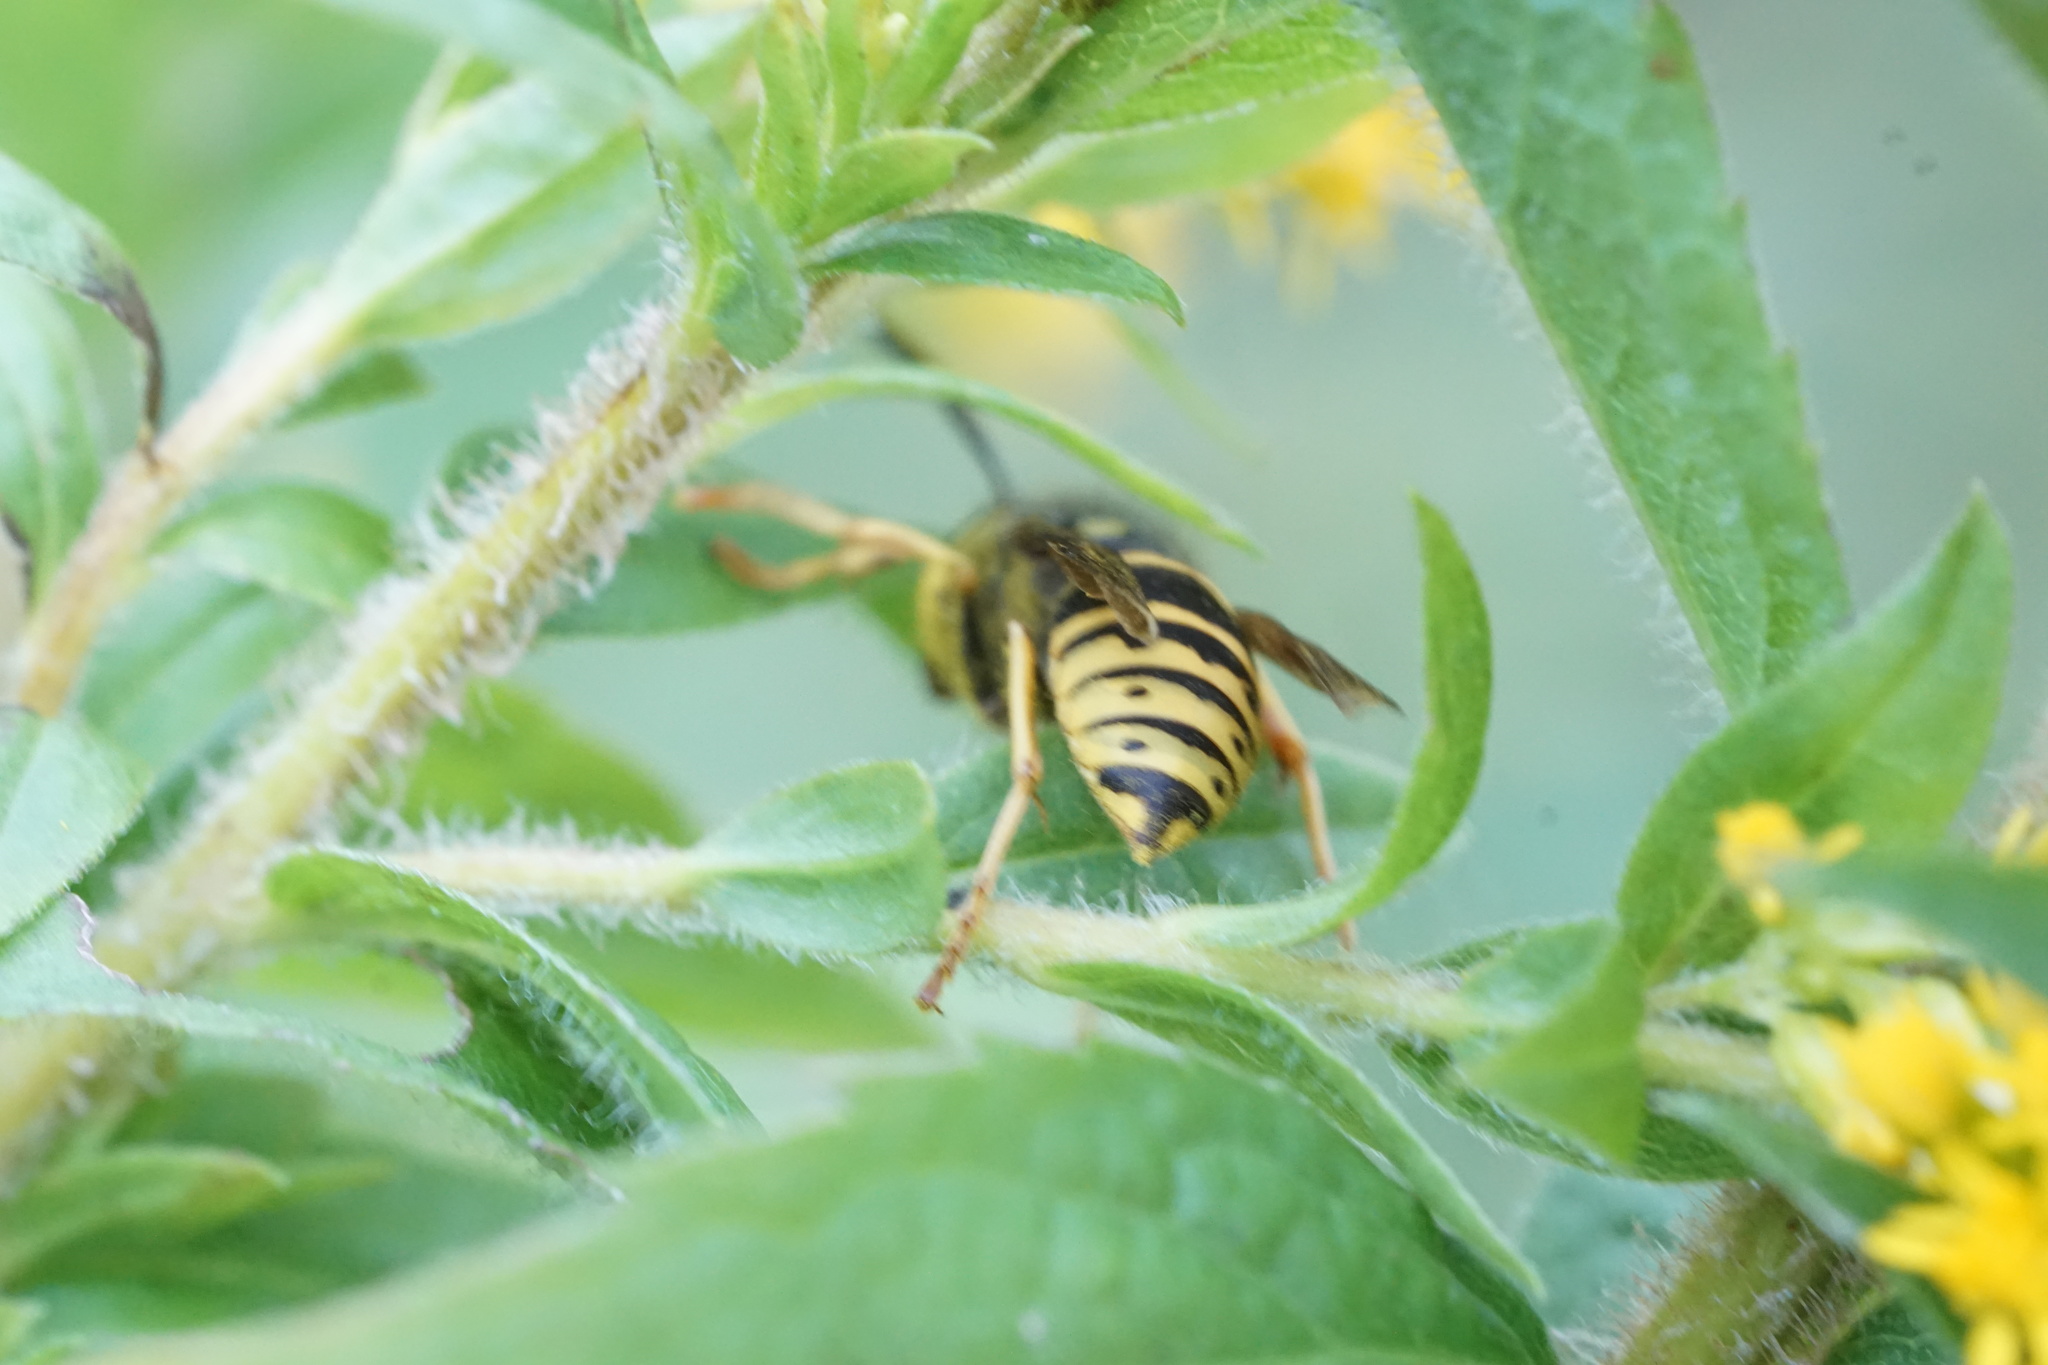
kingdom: Animalia
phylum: Arthropoda
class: Insecta
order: Hymenoptera
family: Vespidae
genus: Vespula
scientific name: Vespula vidua
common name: Widow yellowjacket
